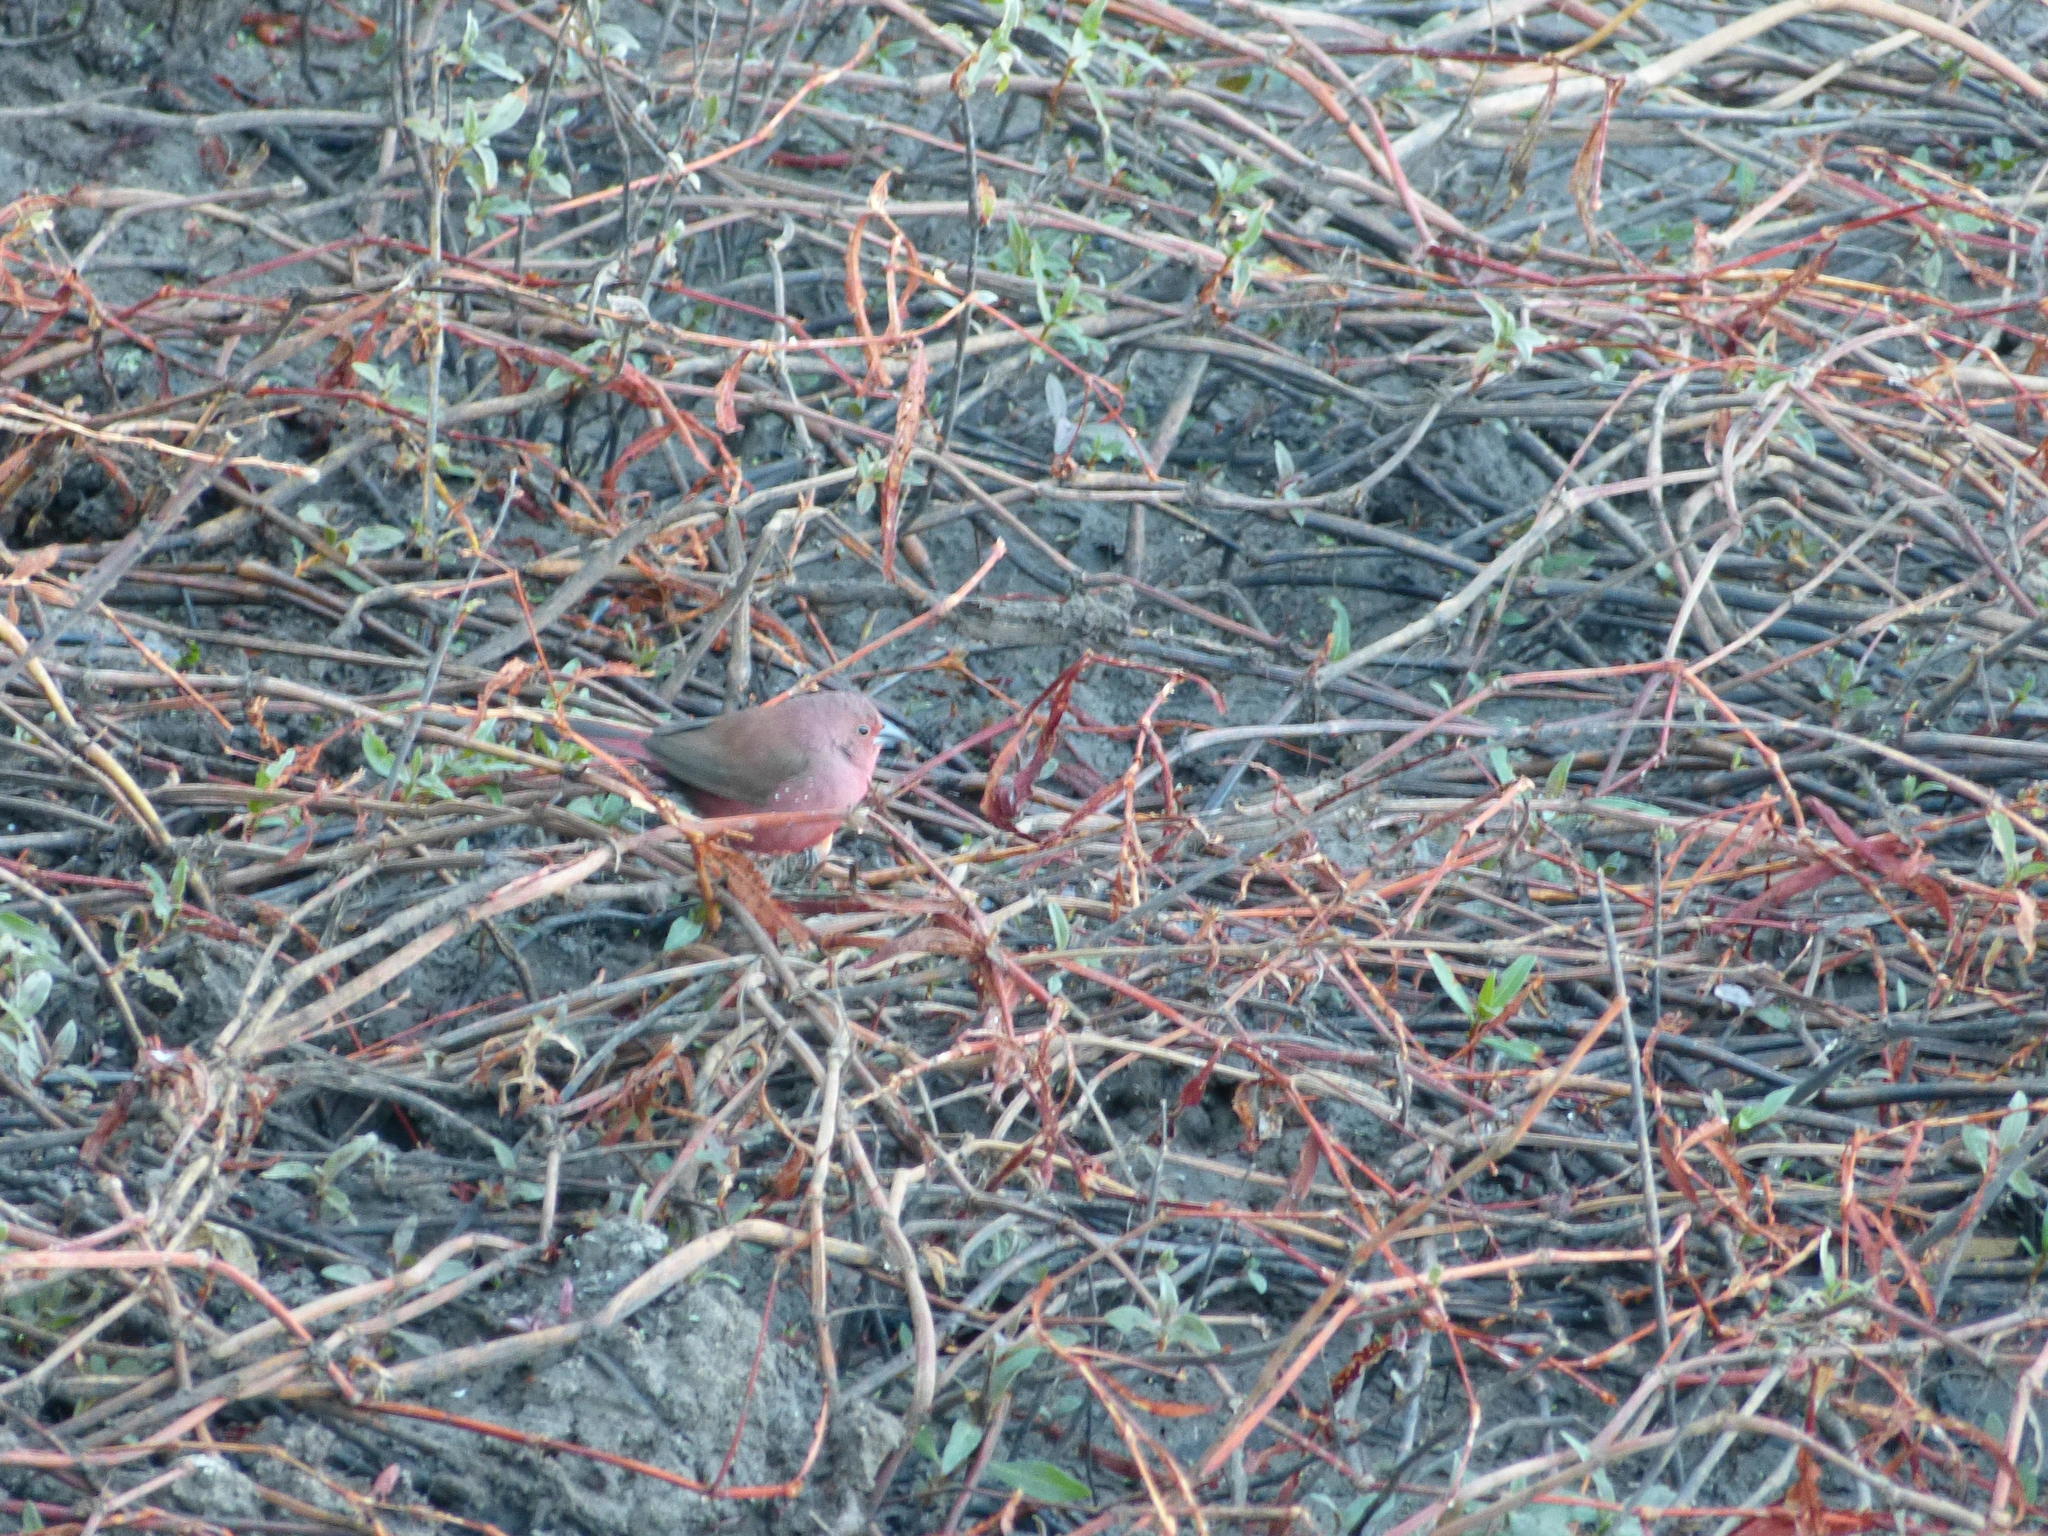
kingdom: Animalia
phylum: Chordata
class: Aves
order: Passeriformes
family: Estrildidae
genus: Lagonosticta
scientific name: Lagonosticta rhodopareia
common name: Jameson's firefinch
